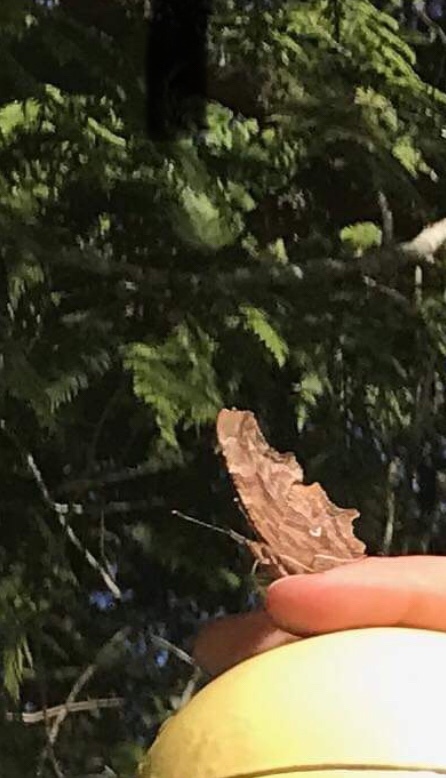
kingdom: Animalia
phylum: Arthropoda
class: Insecta
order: Lepidoptera
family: Nymphalidae
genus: Polygonia
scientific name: Polygonia satyrus
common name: Satyr angle wing
